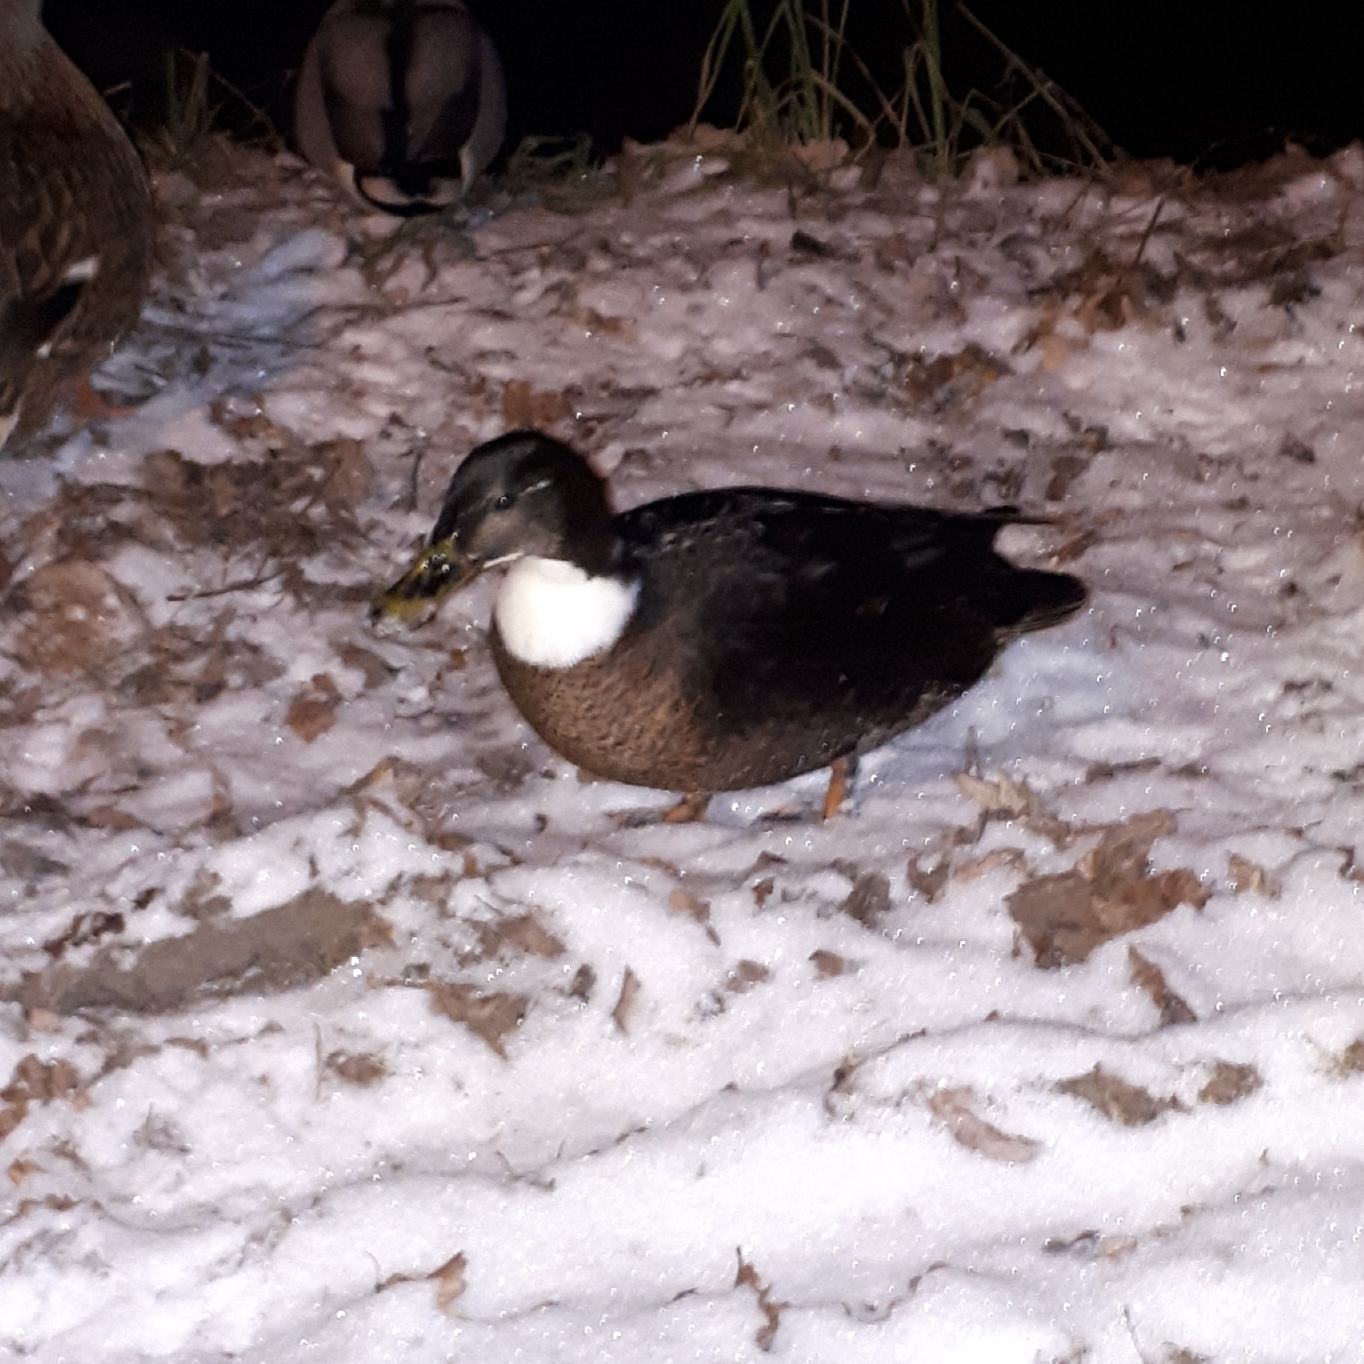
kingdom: Animalia
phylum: Chordata
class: Aves
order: Anseriformes
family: Anatidae
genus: Anas
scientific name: Anas platyrhynchos
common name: Mallard
